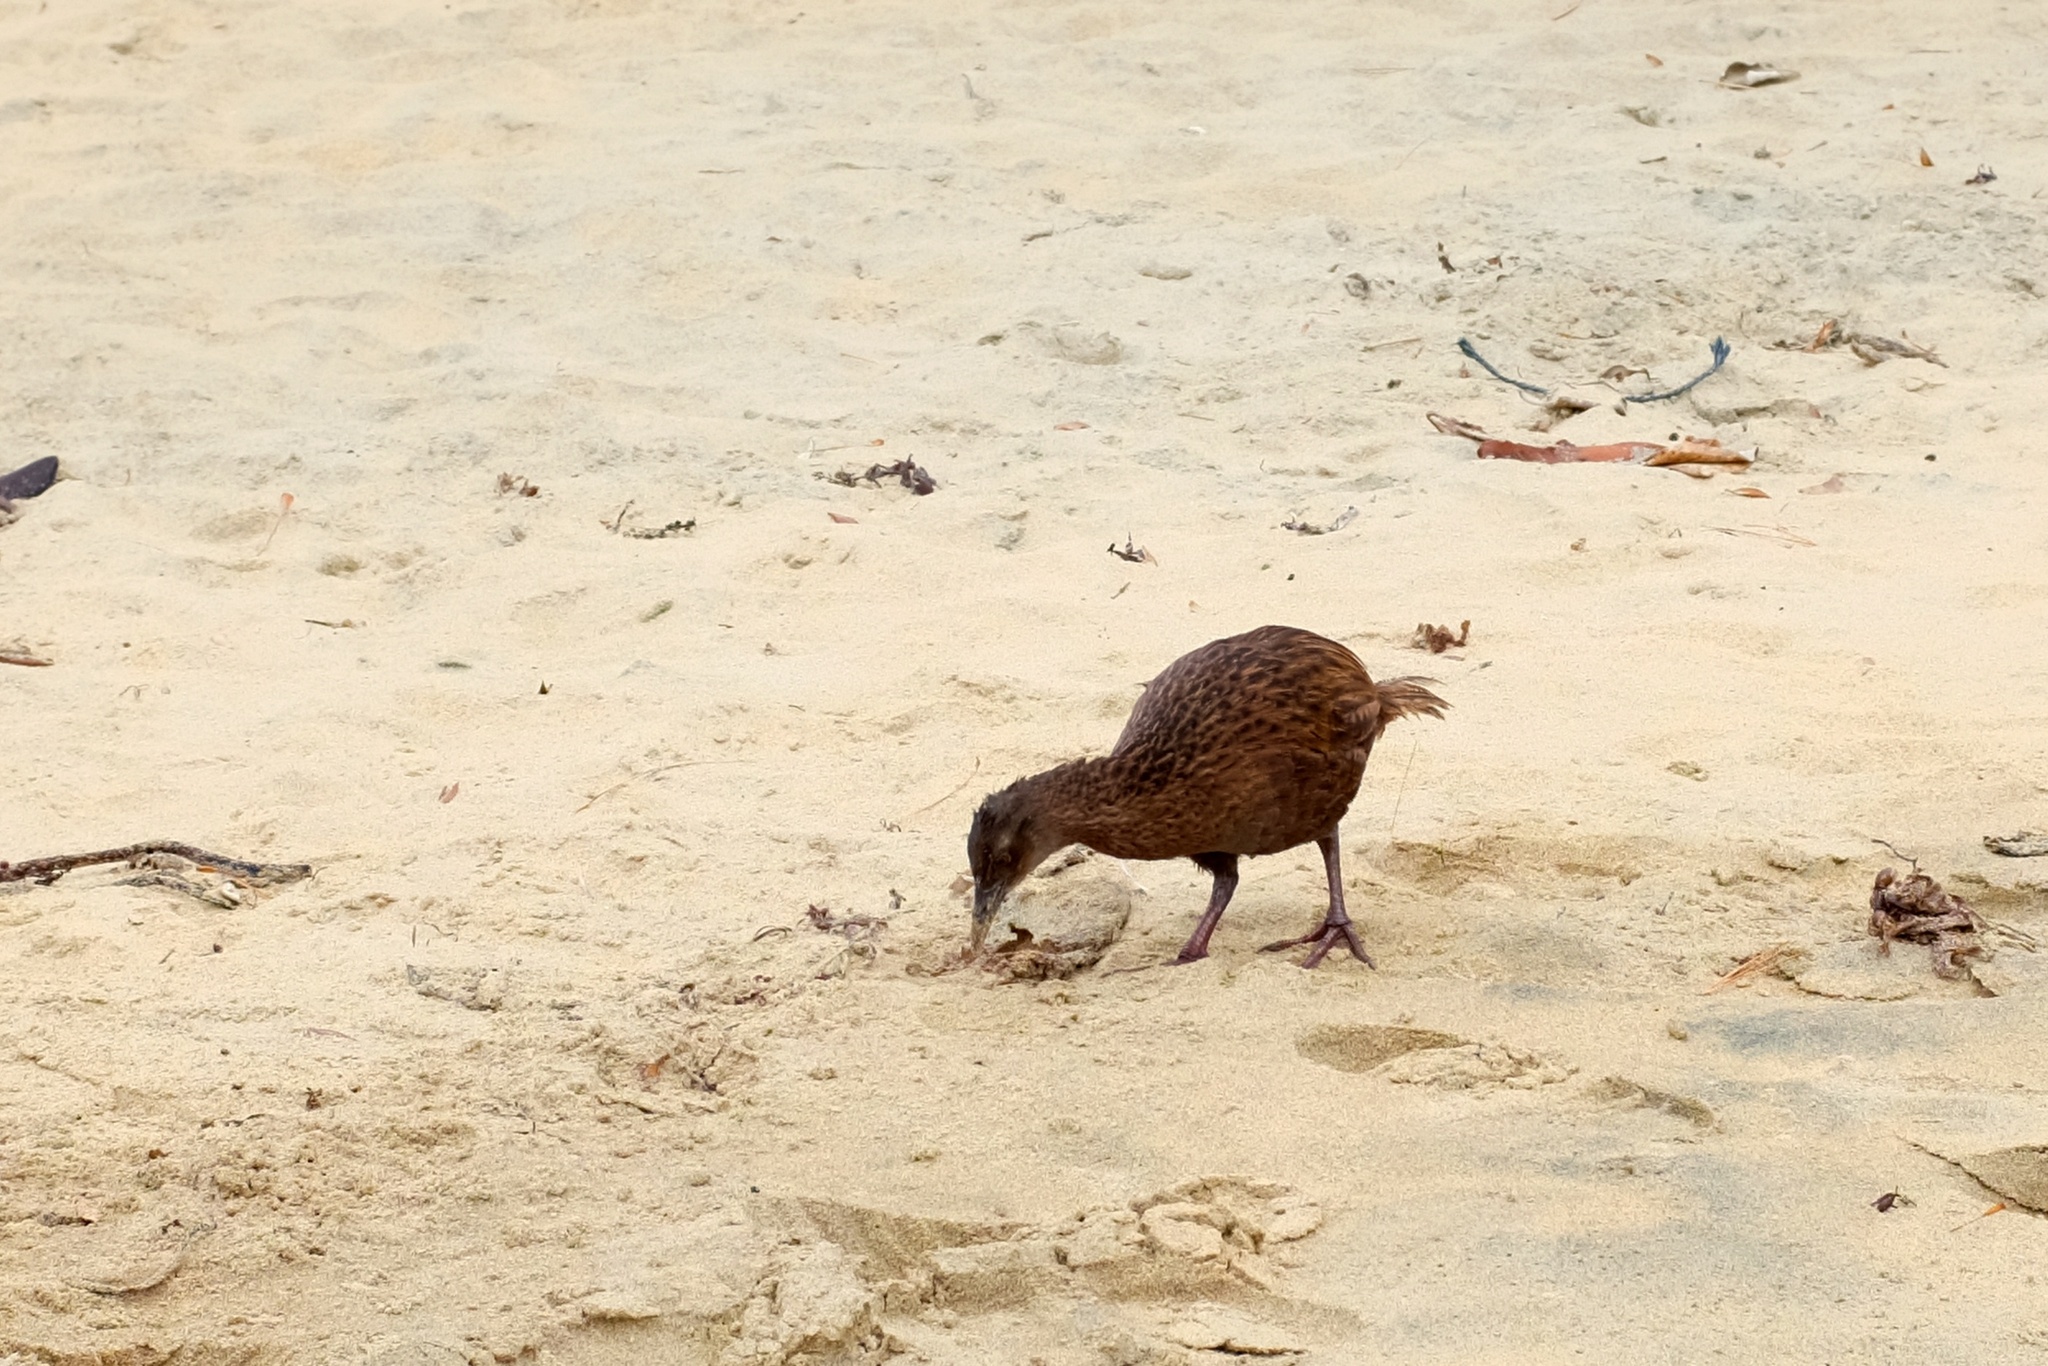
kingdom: Animalia
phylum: Chordata
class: Aves
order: Gruiformes
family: Rallidae
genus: Gallirallus
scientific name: Gallirallus australis
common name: Weka
